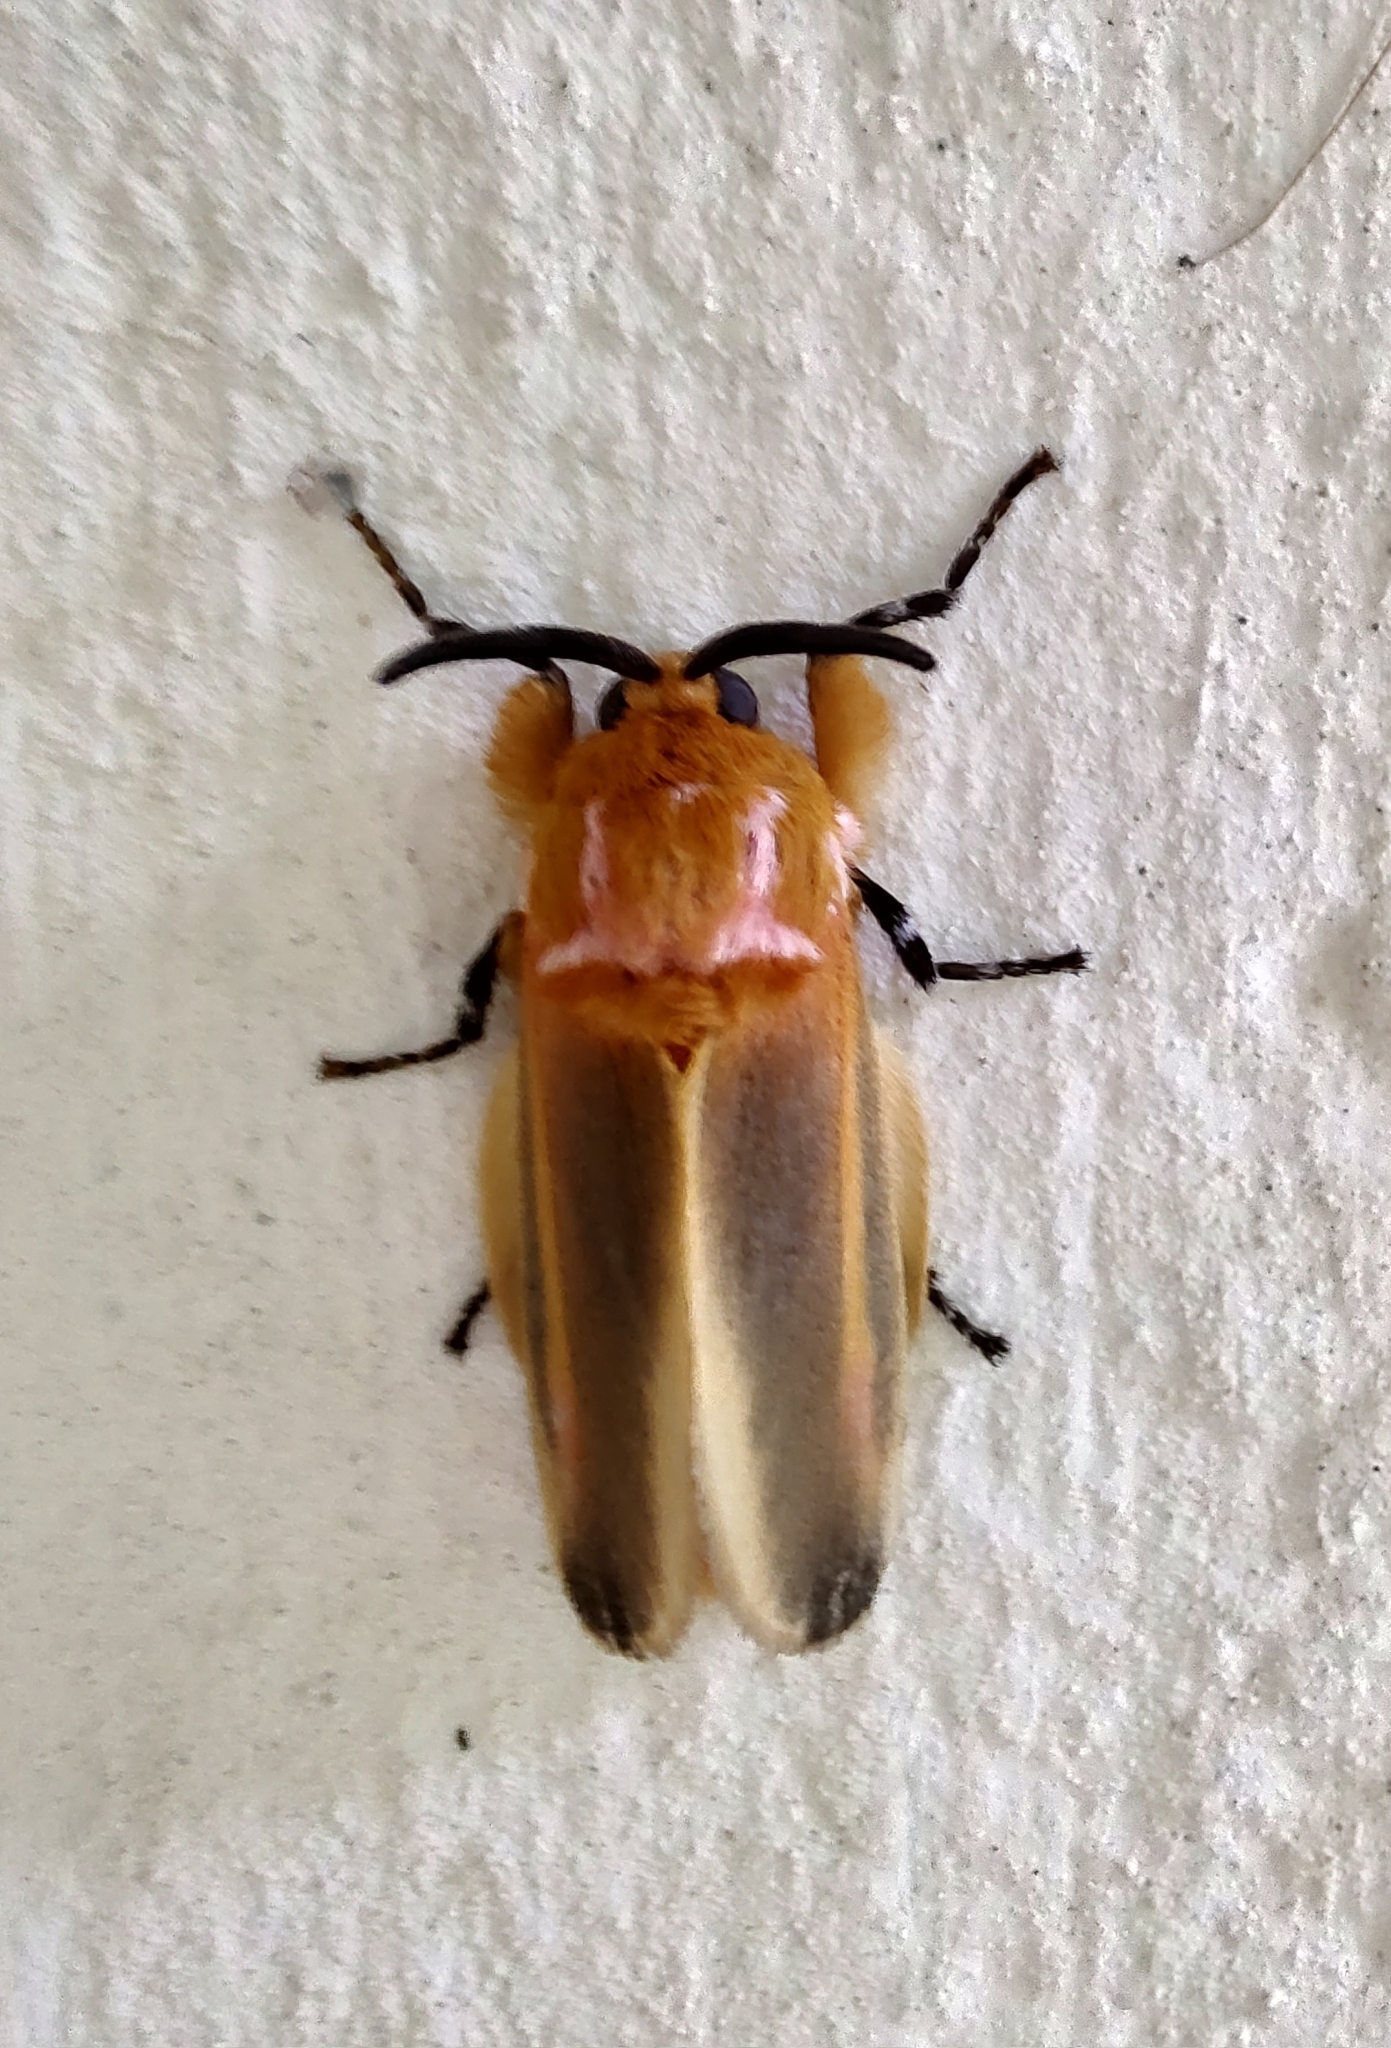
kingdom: Animalia
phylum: Arthropoda
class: Insecta
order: Lepidoptera
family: Megalopygidae
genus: Endobrachys
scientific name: Endobrachys revocans
